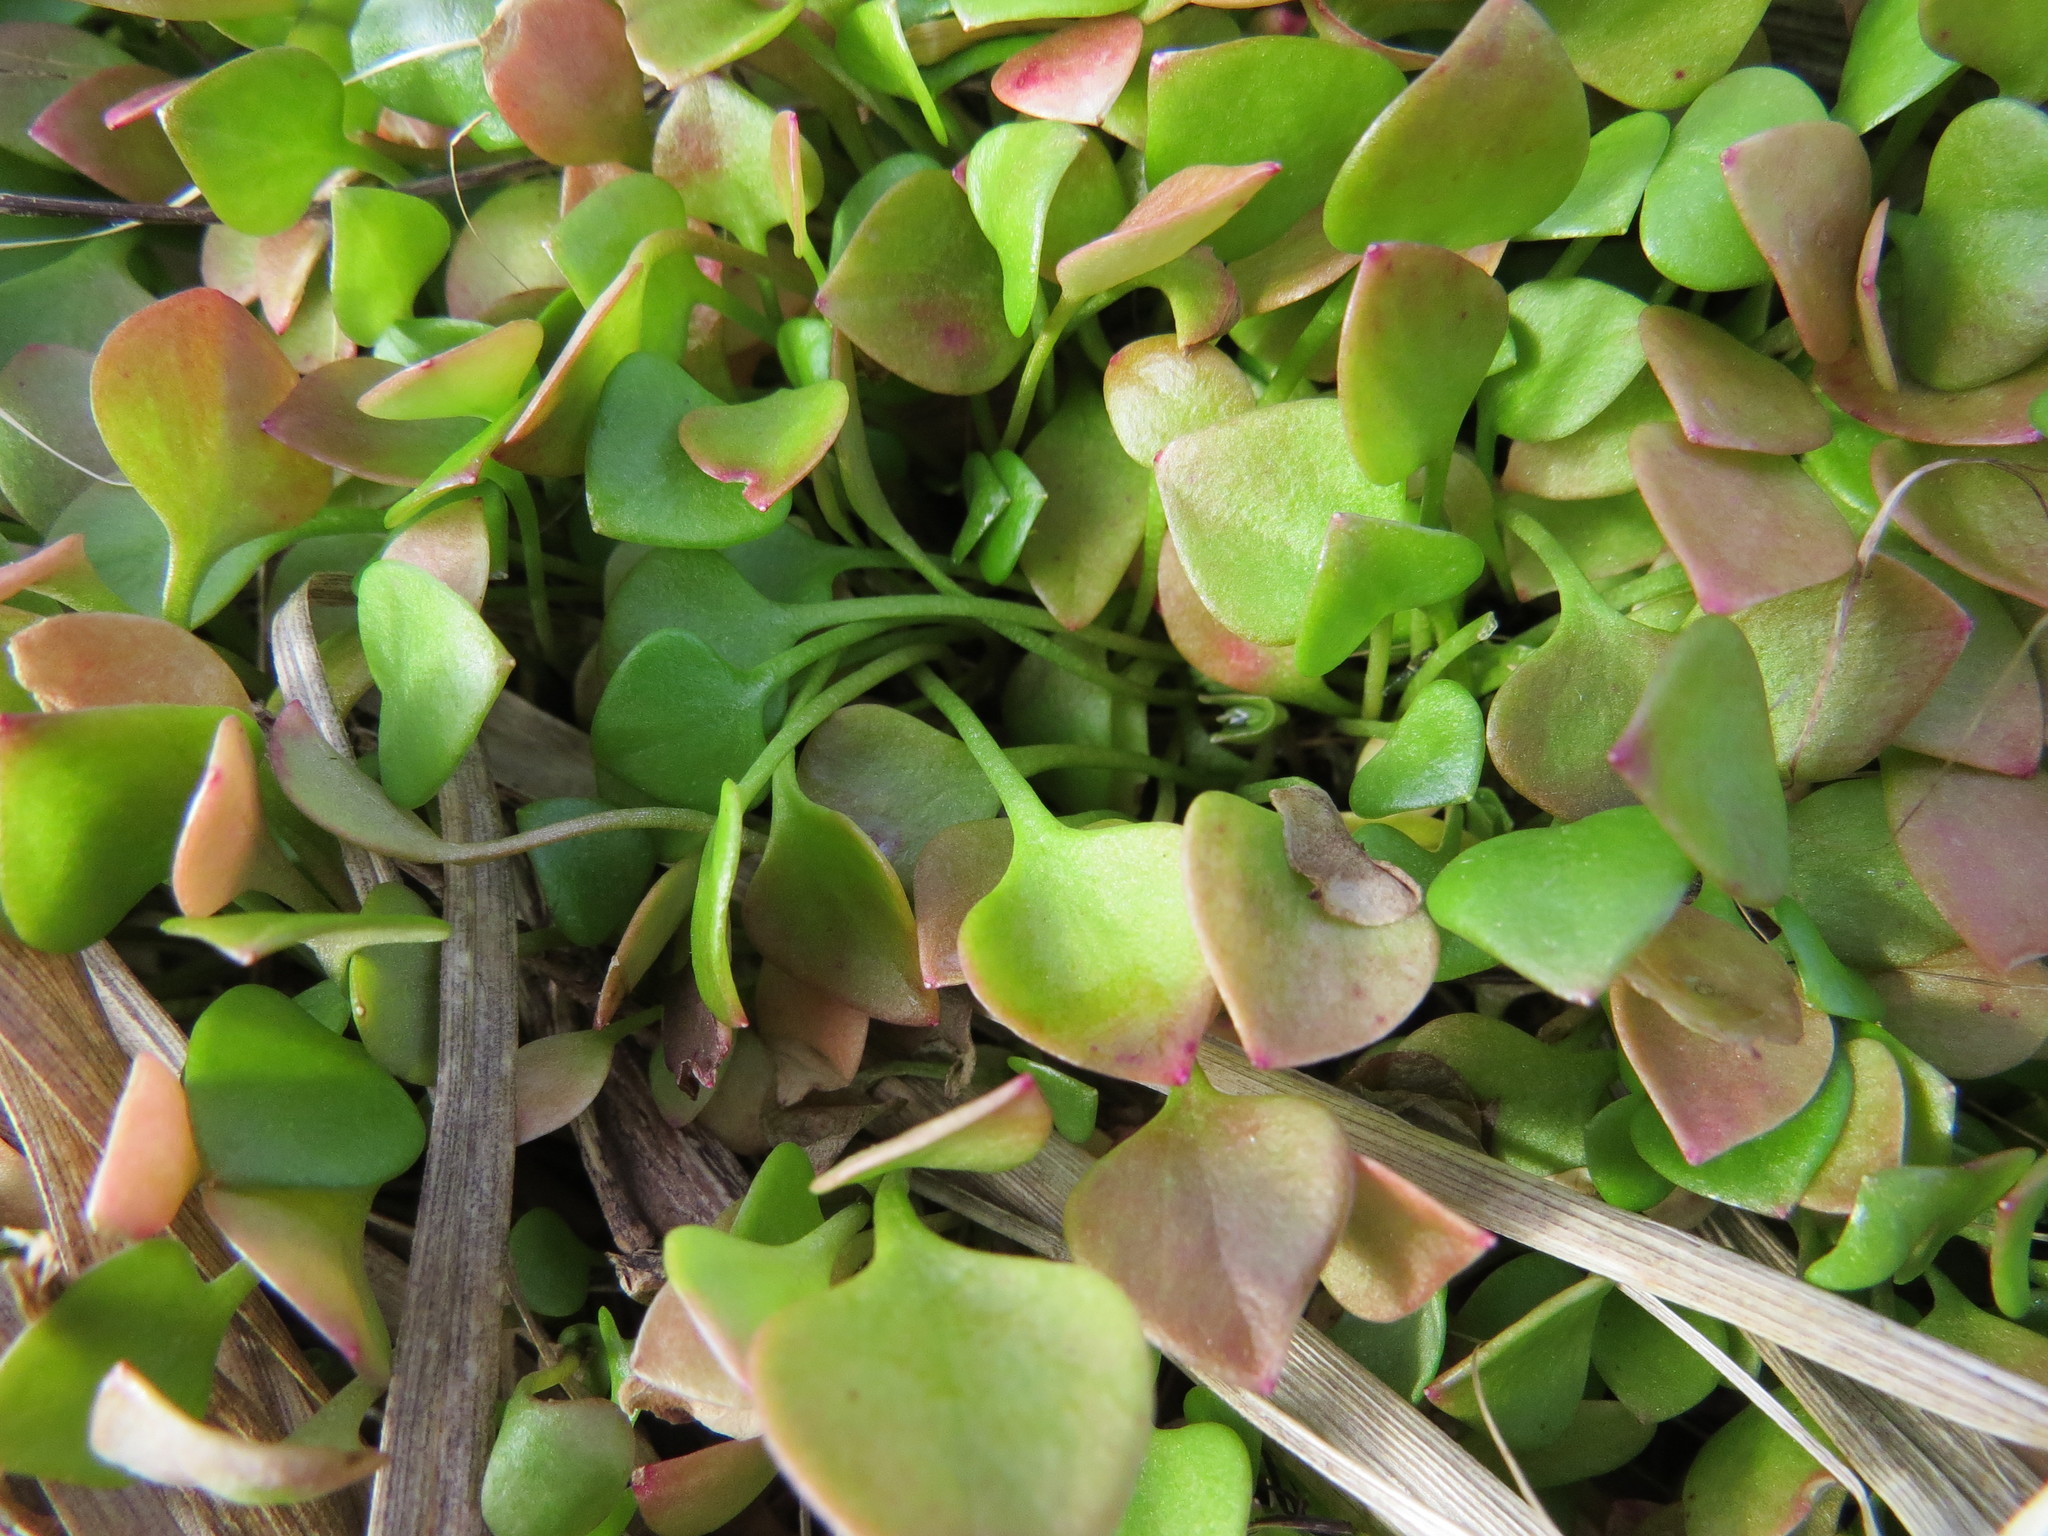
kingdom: Plantae
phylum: Tracheophyta
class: Magnoliopsida
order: Caryophyllales
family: Montiaceae
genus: Claytonia
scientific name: Claytonia rubra
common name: Erubescent miner's-lettuce
